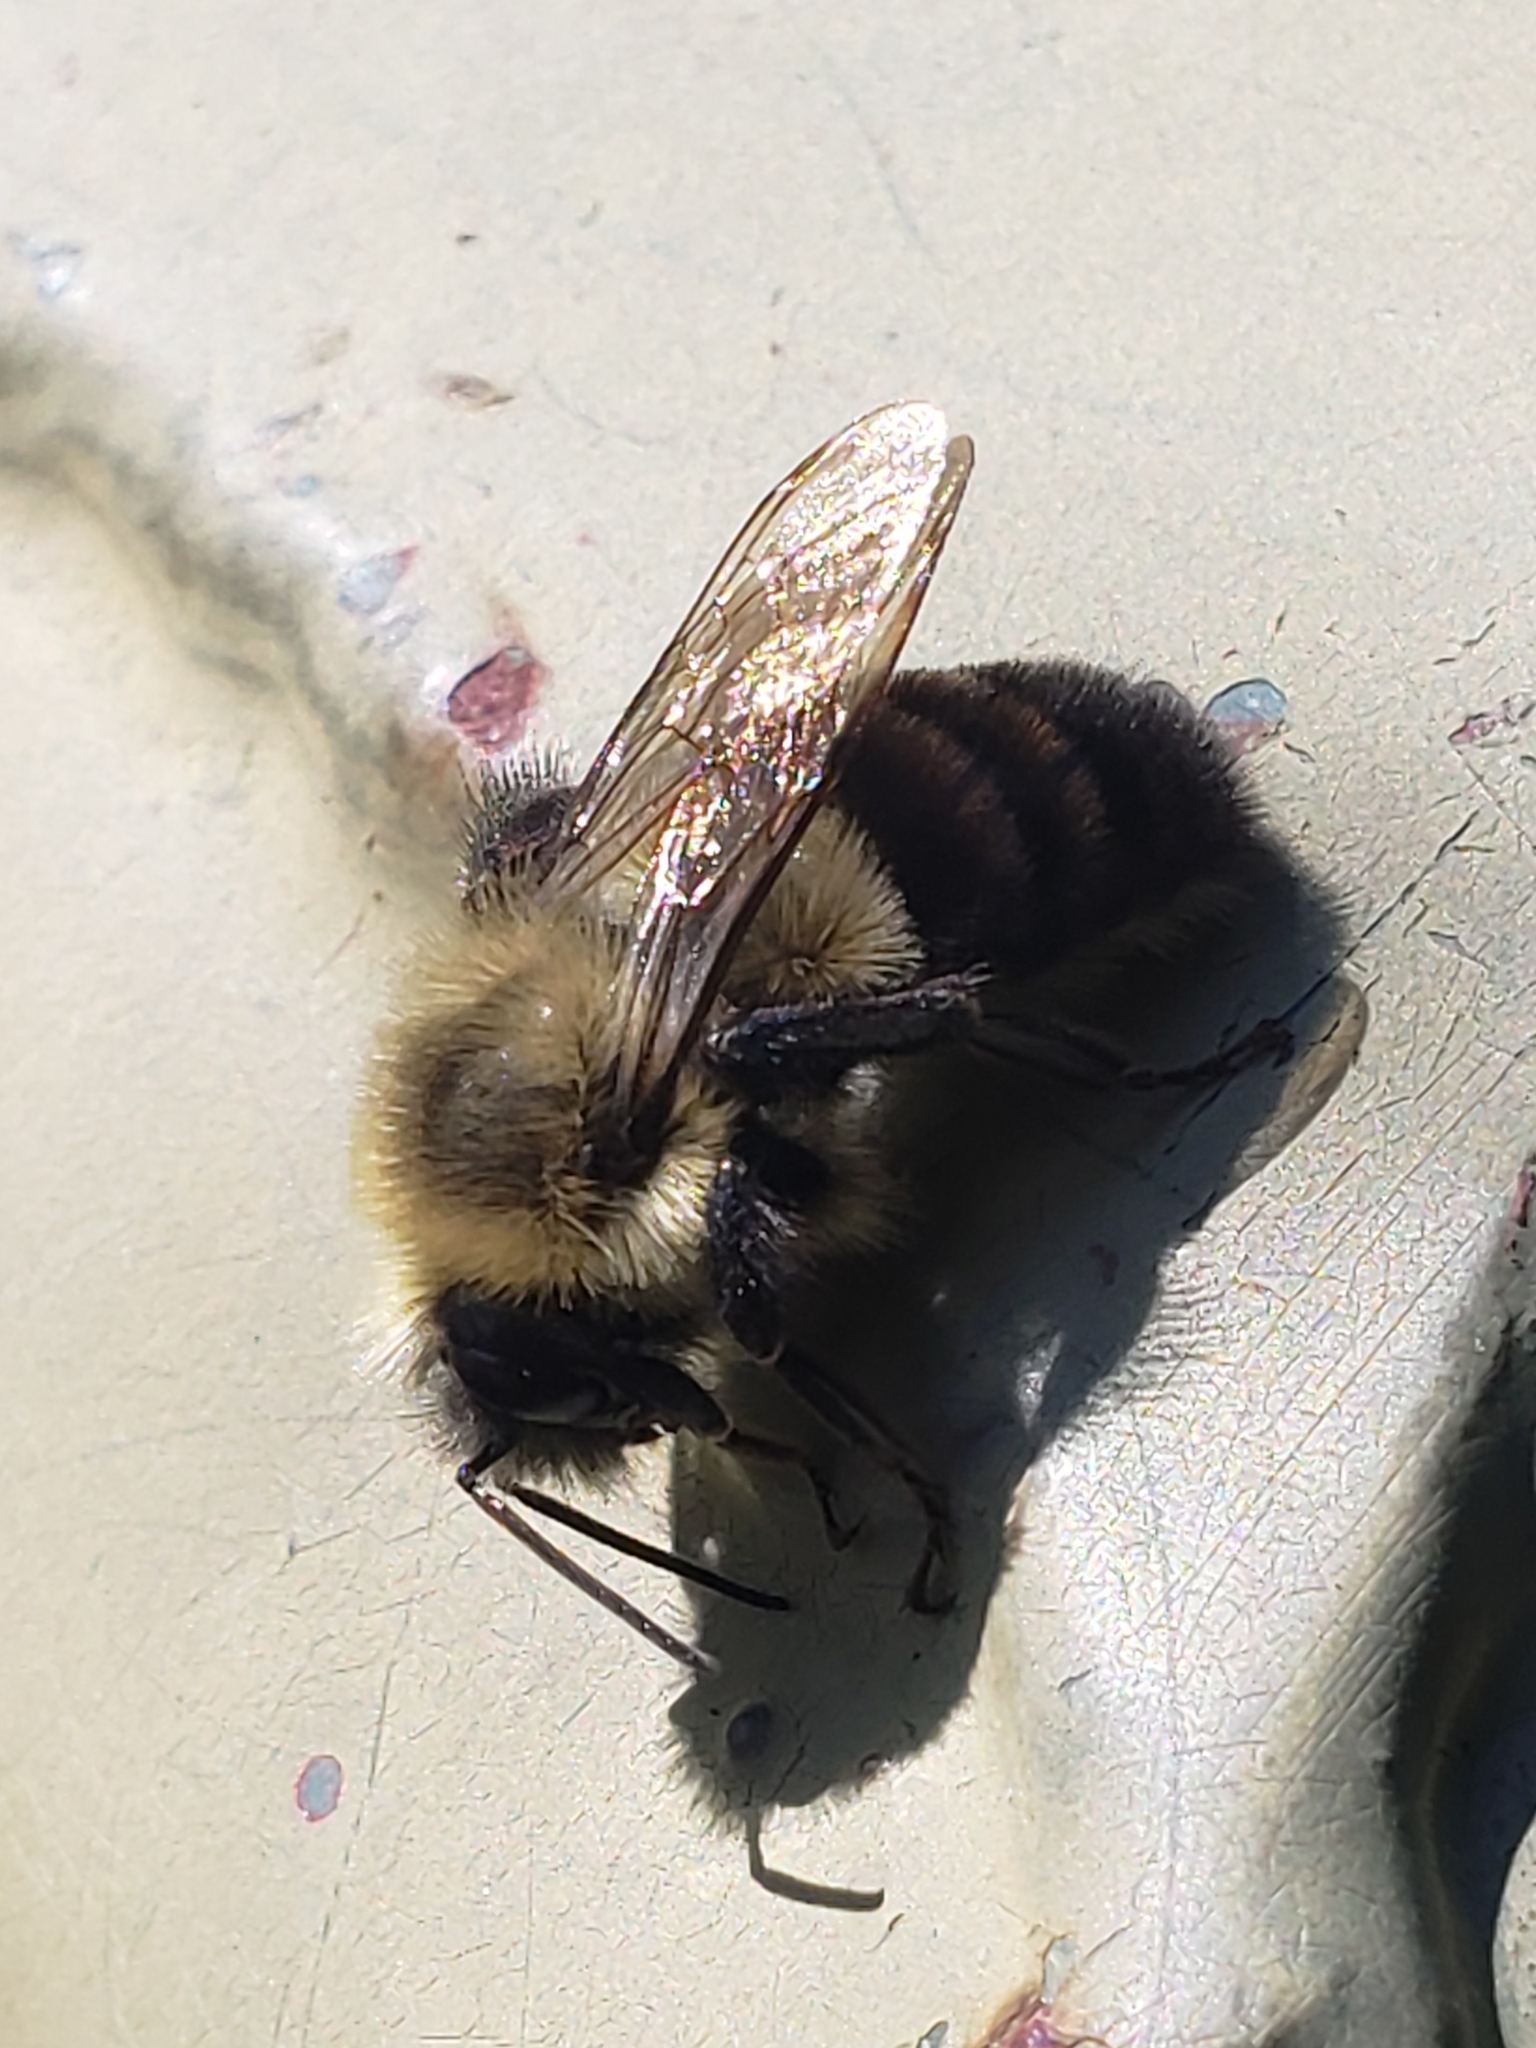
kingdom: Animalia
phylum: Arthropoda
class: Insecta
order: Hymenoptera
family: Apidae
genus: Bombus
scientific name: Bombus impatiens
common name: Common eastern bumble bee
